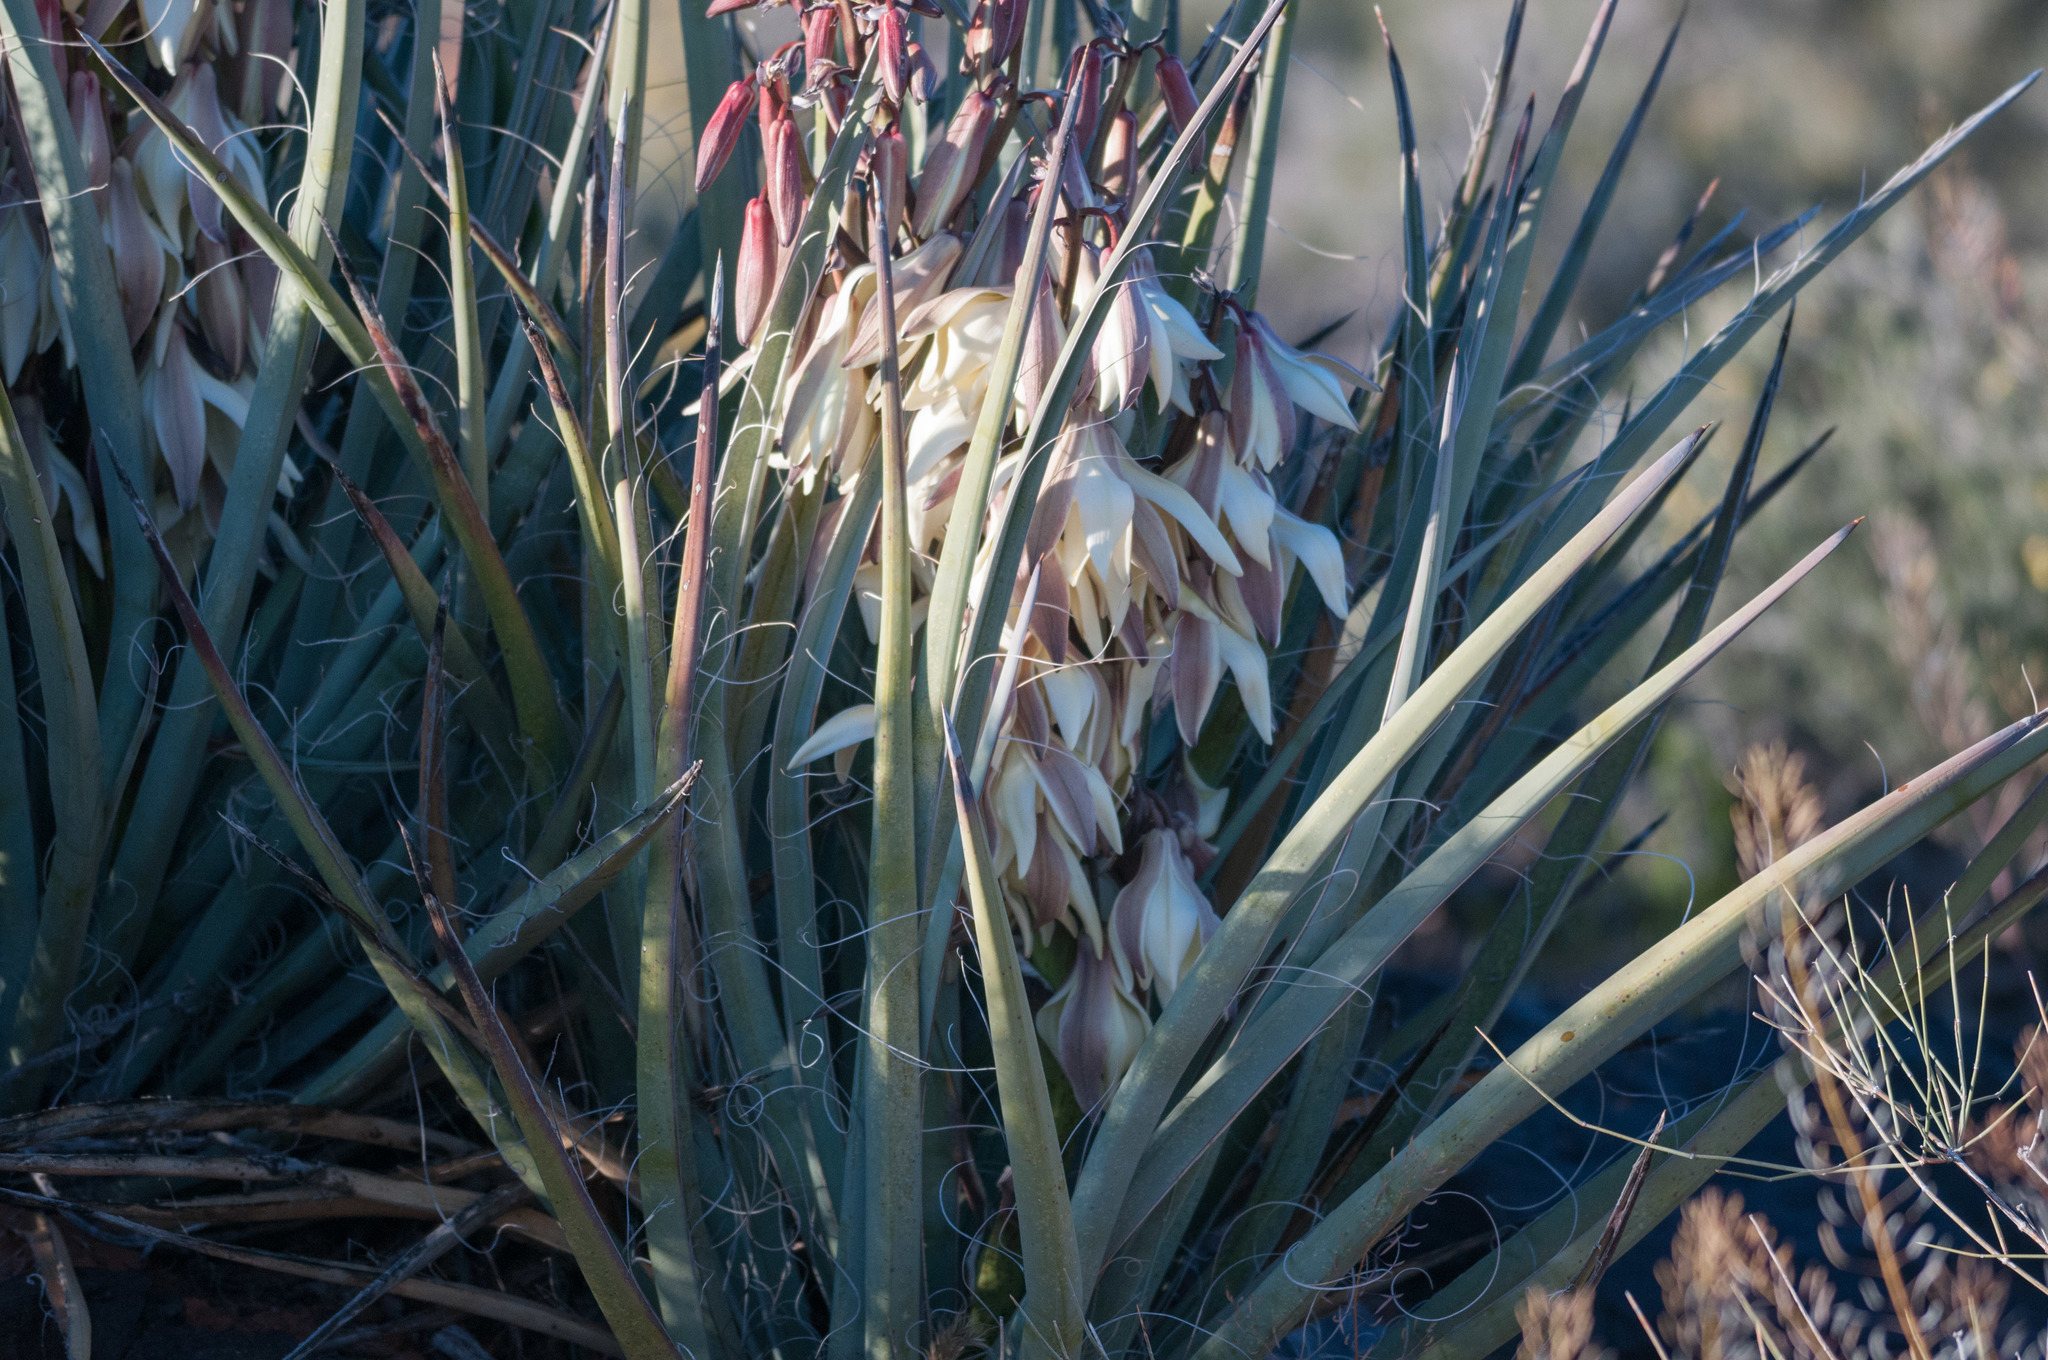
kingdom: Plantae
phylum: Tracheophyta
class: Liliopsida
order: Asparagales
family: Asparagaceae
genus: Yucca
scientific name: Yucca baccata
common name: Banana yucca
